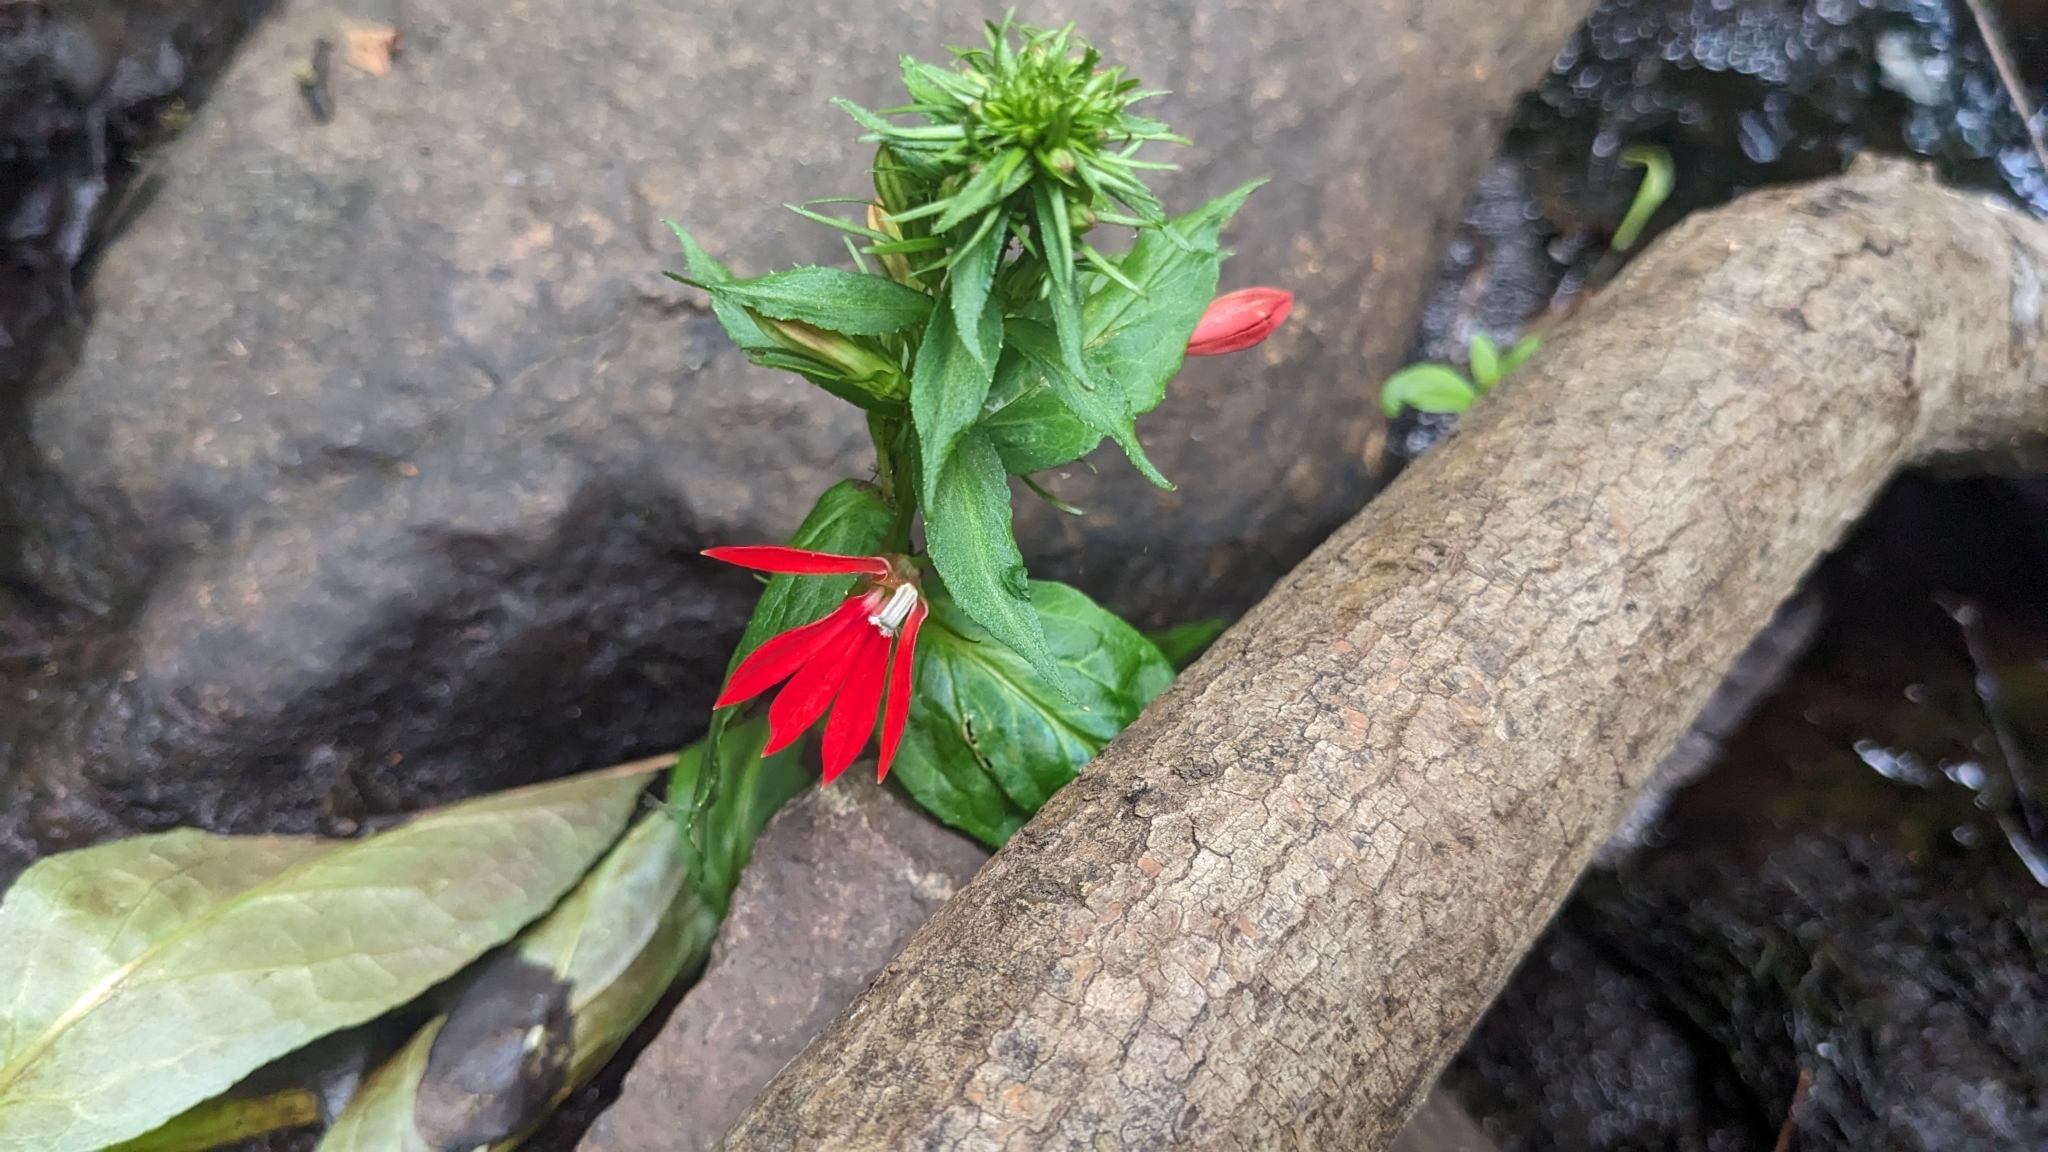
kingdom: Plantae
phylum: Tracheophyta
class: Magnoliopsida
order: Asterales
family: Campanulaceae
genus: Lobelia
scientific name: Lobelia cardinalis
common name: Cardinal flower
